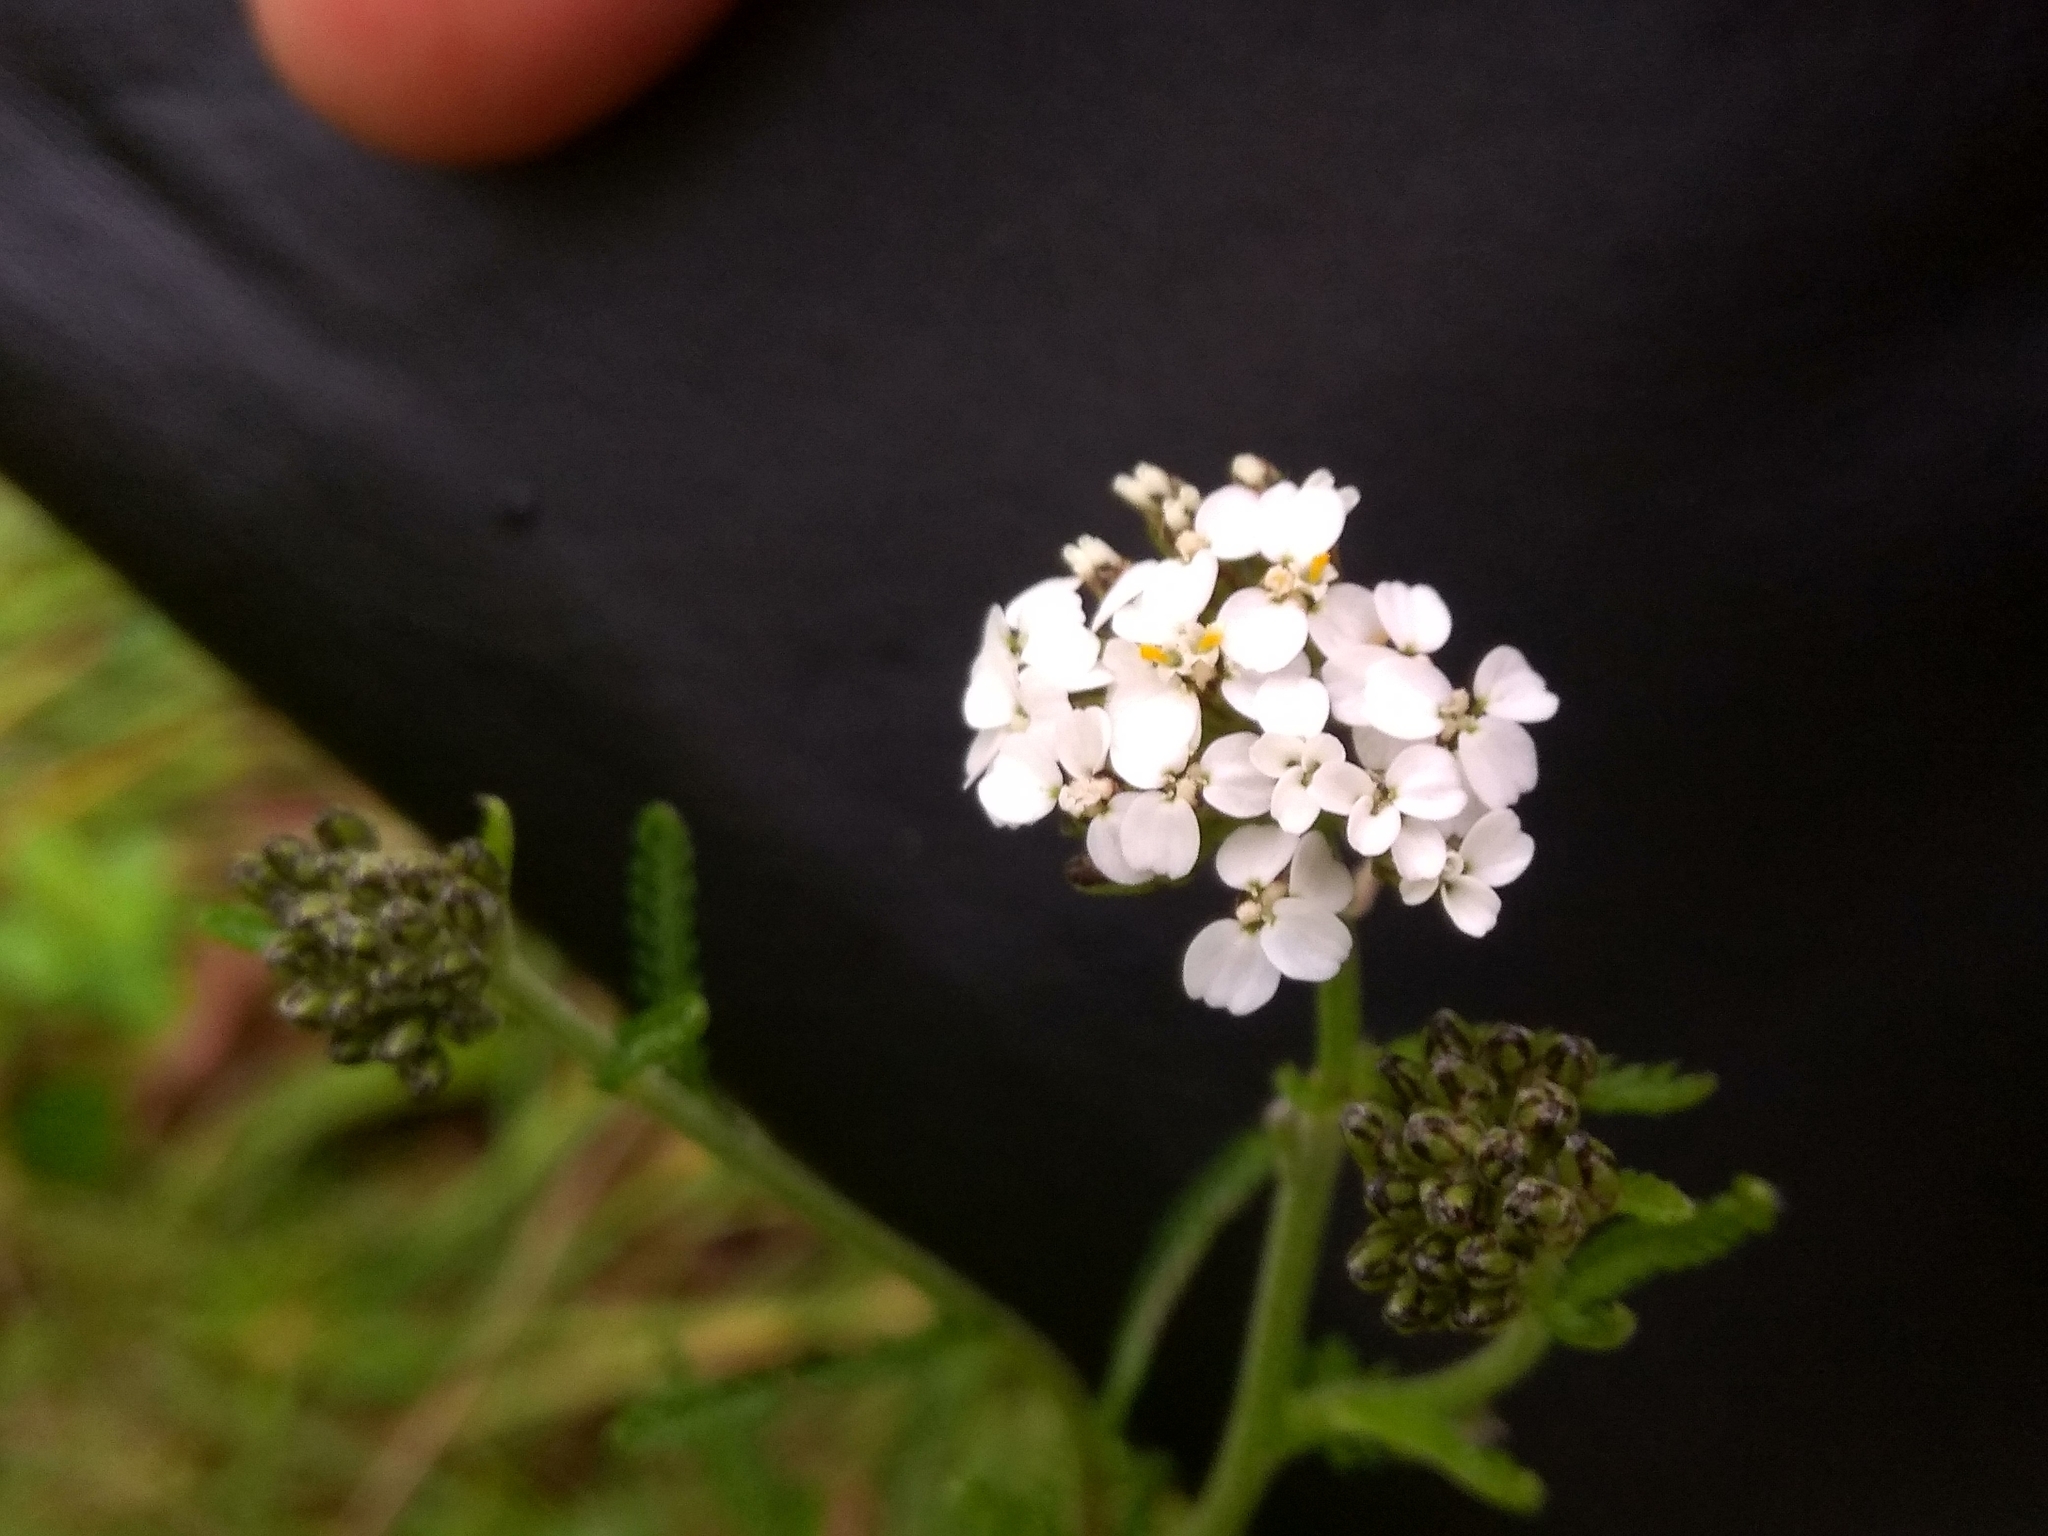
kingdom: Plantae
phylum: Tracheophyta
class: Magnoliopsida
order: Asterales
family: Asteraceae
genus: Achillea
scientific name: Achillea millefolium
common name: Yarrow
